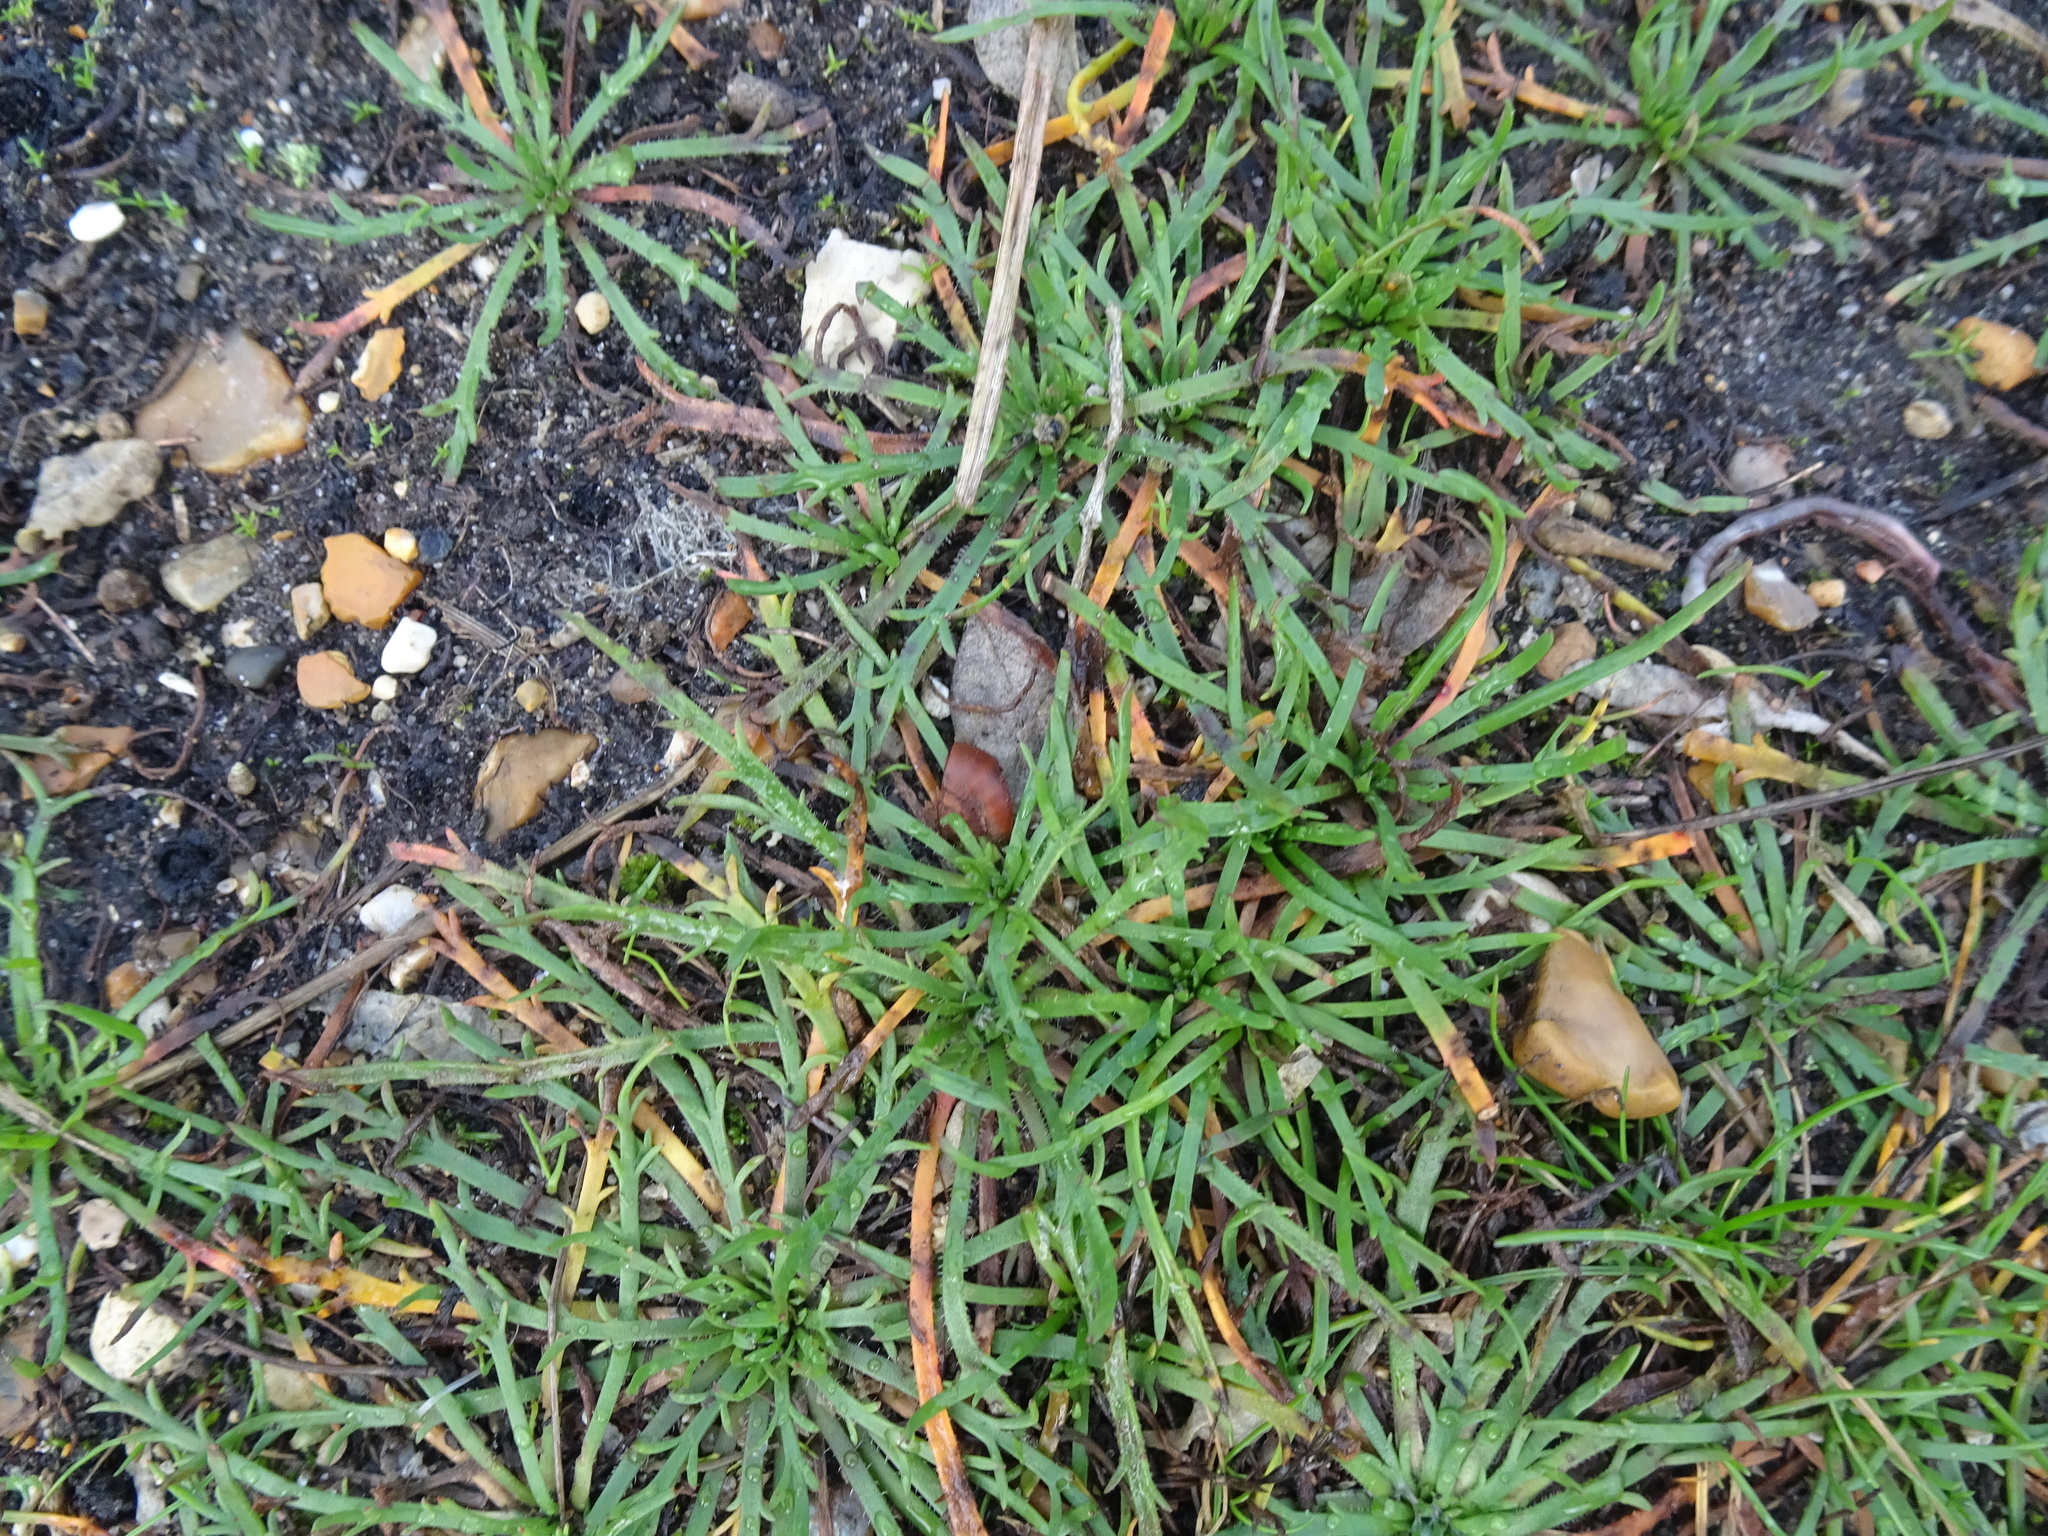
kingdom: Plantae
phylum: Tracheophyta
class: Magnoliopsida
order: Lamiales
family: Plantaginaceae
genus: Plantago
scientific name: Plantago coronopus
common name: Buck's-horn plantain
